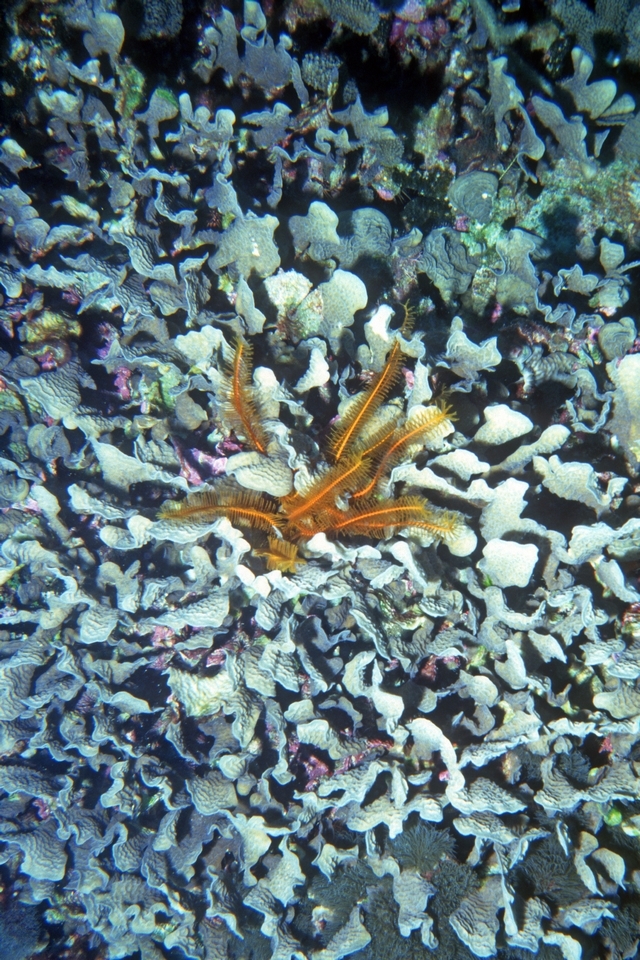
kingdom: Animalia
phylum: Cnidaria
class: Anthozoa
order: Scleractinia
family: Agariciidae
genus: Agaricia
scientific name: Agaricia tenuifolia
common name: Thin leaf lettuce coral
